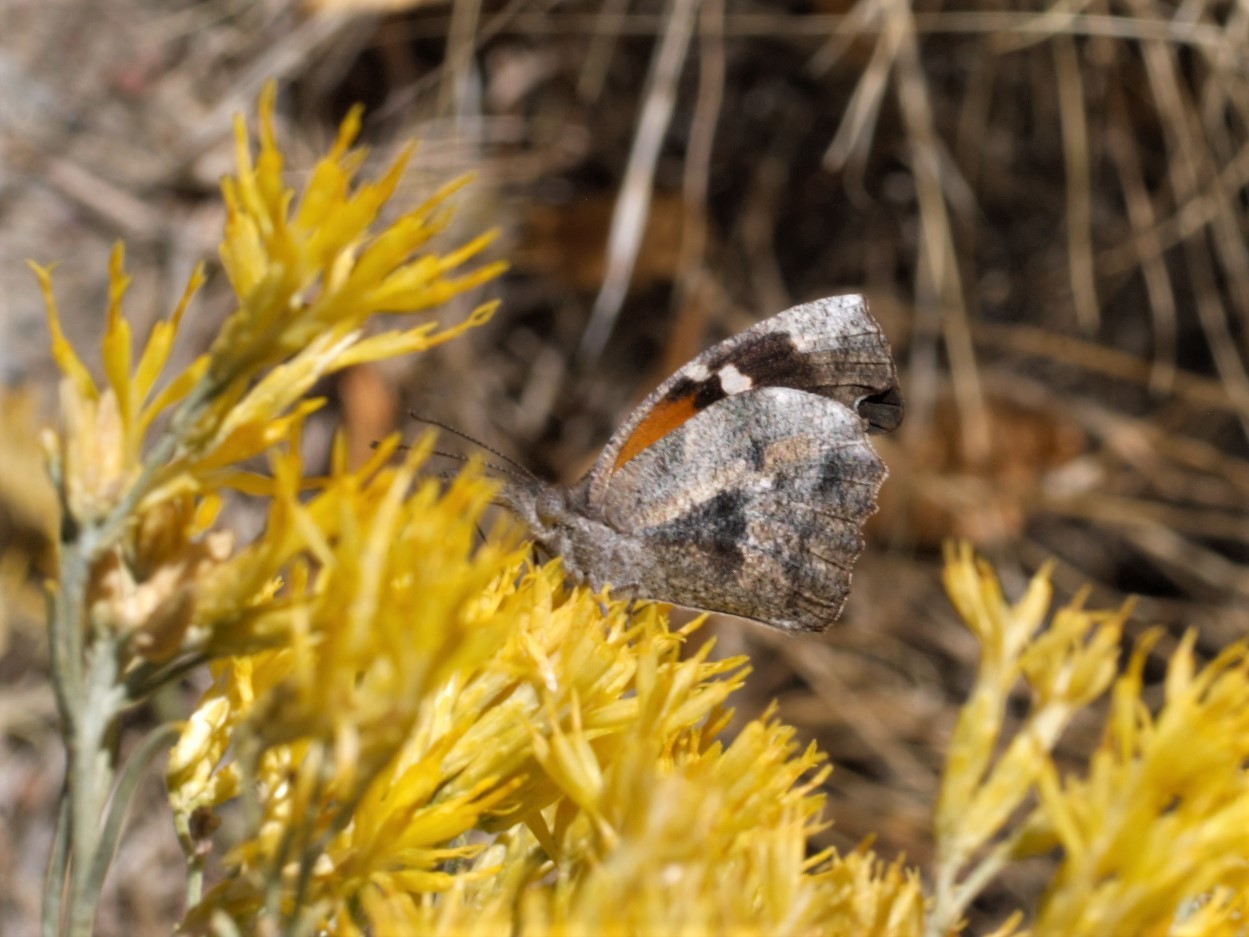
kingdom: Animalia
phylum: Arthropoda
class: Insecta
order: Lepidoptera
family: Nymphalidae
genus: Libytheana
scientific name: Libytheana carinenta
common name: American snout
